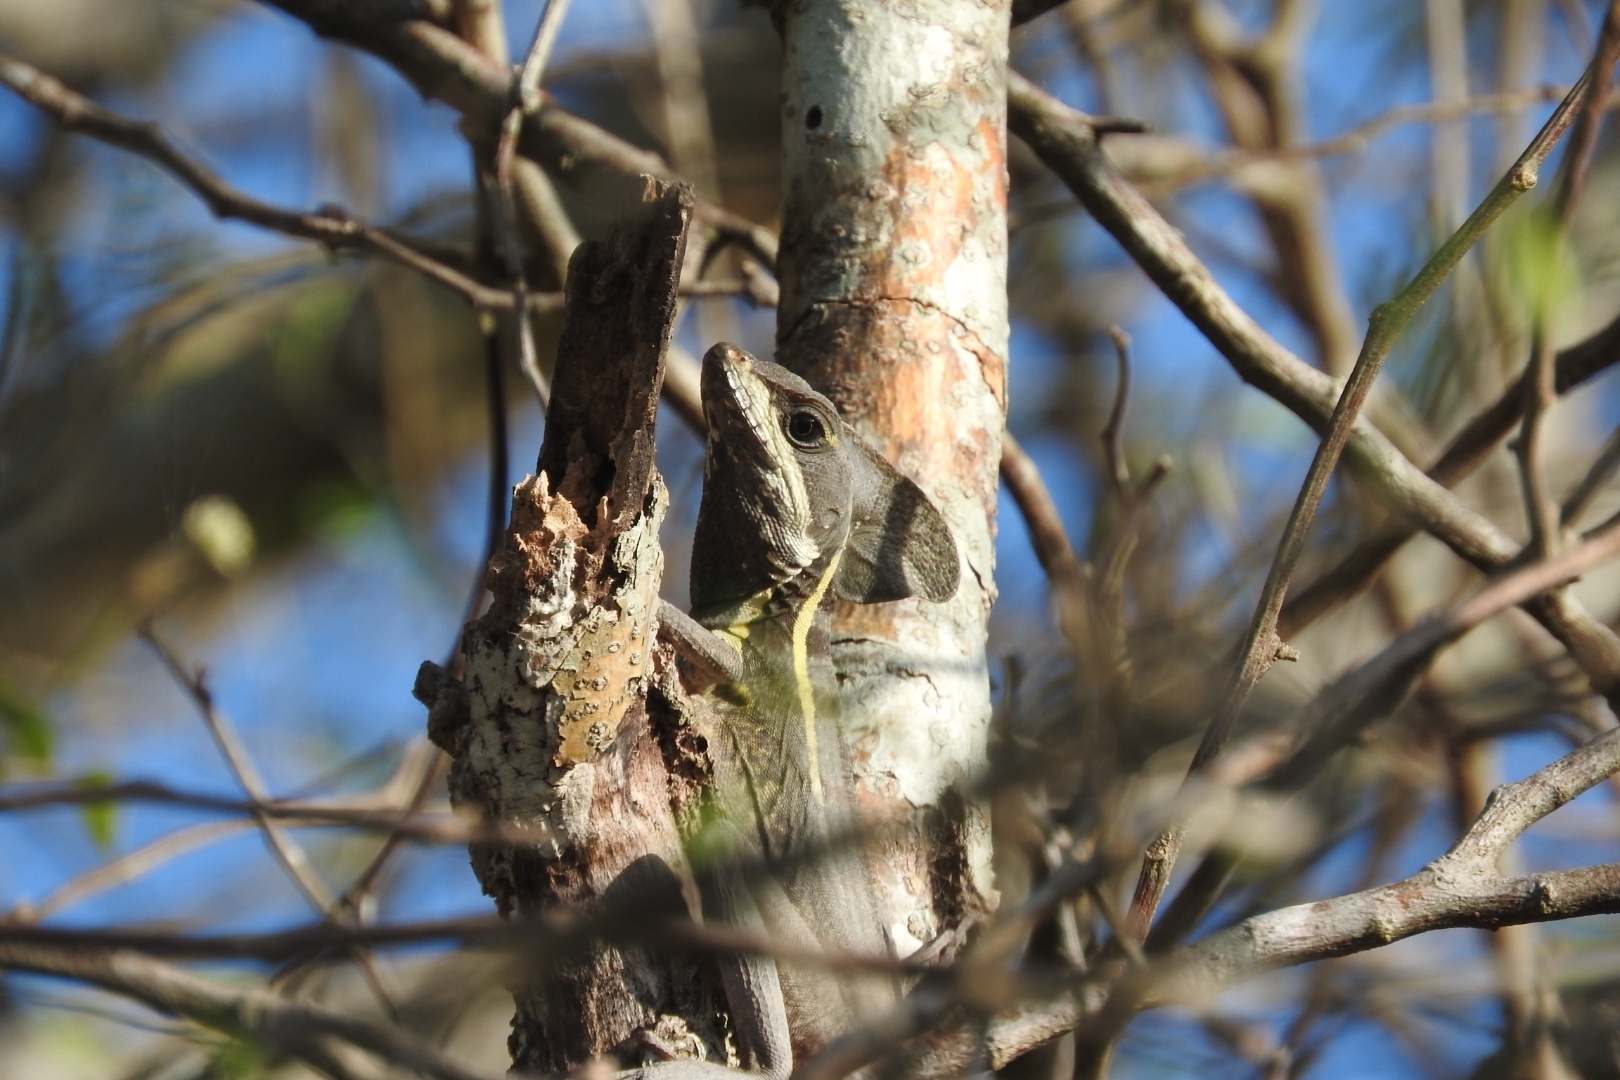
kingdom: Animalia
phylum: Chordata
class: Squamata
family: Corytophanidae
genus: Basiliscus
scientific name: Basiliscus vittatus
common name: Brown basilisk
